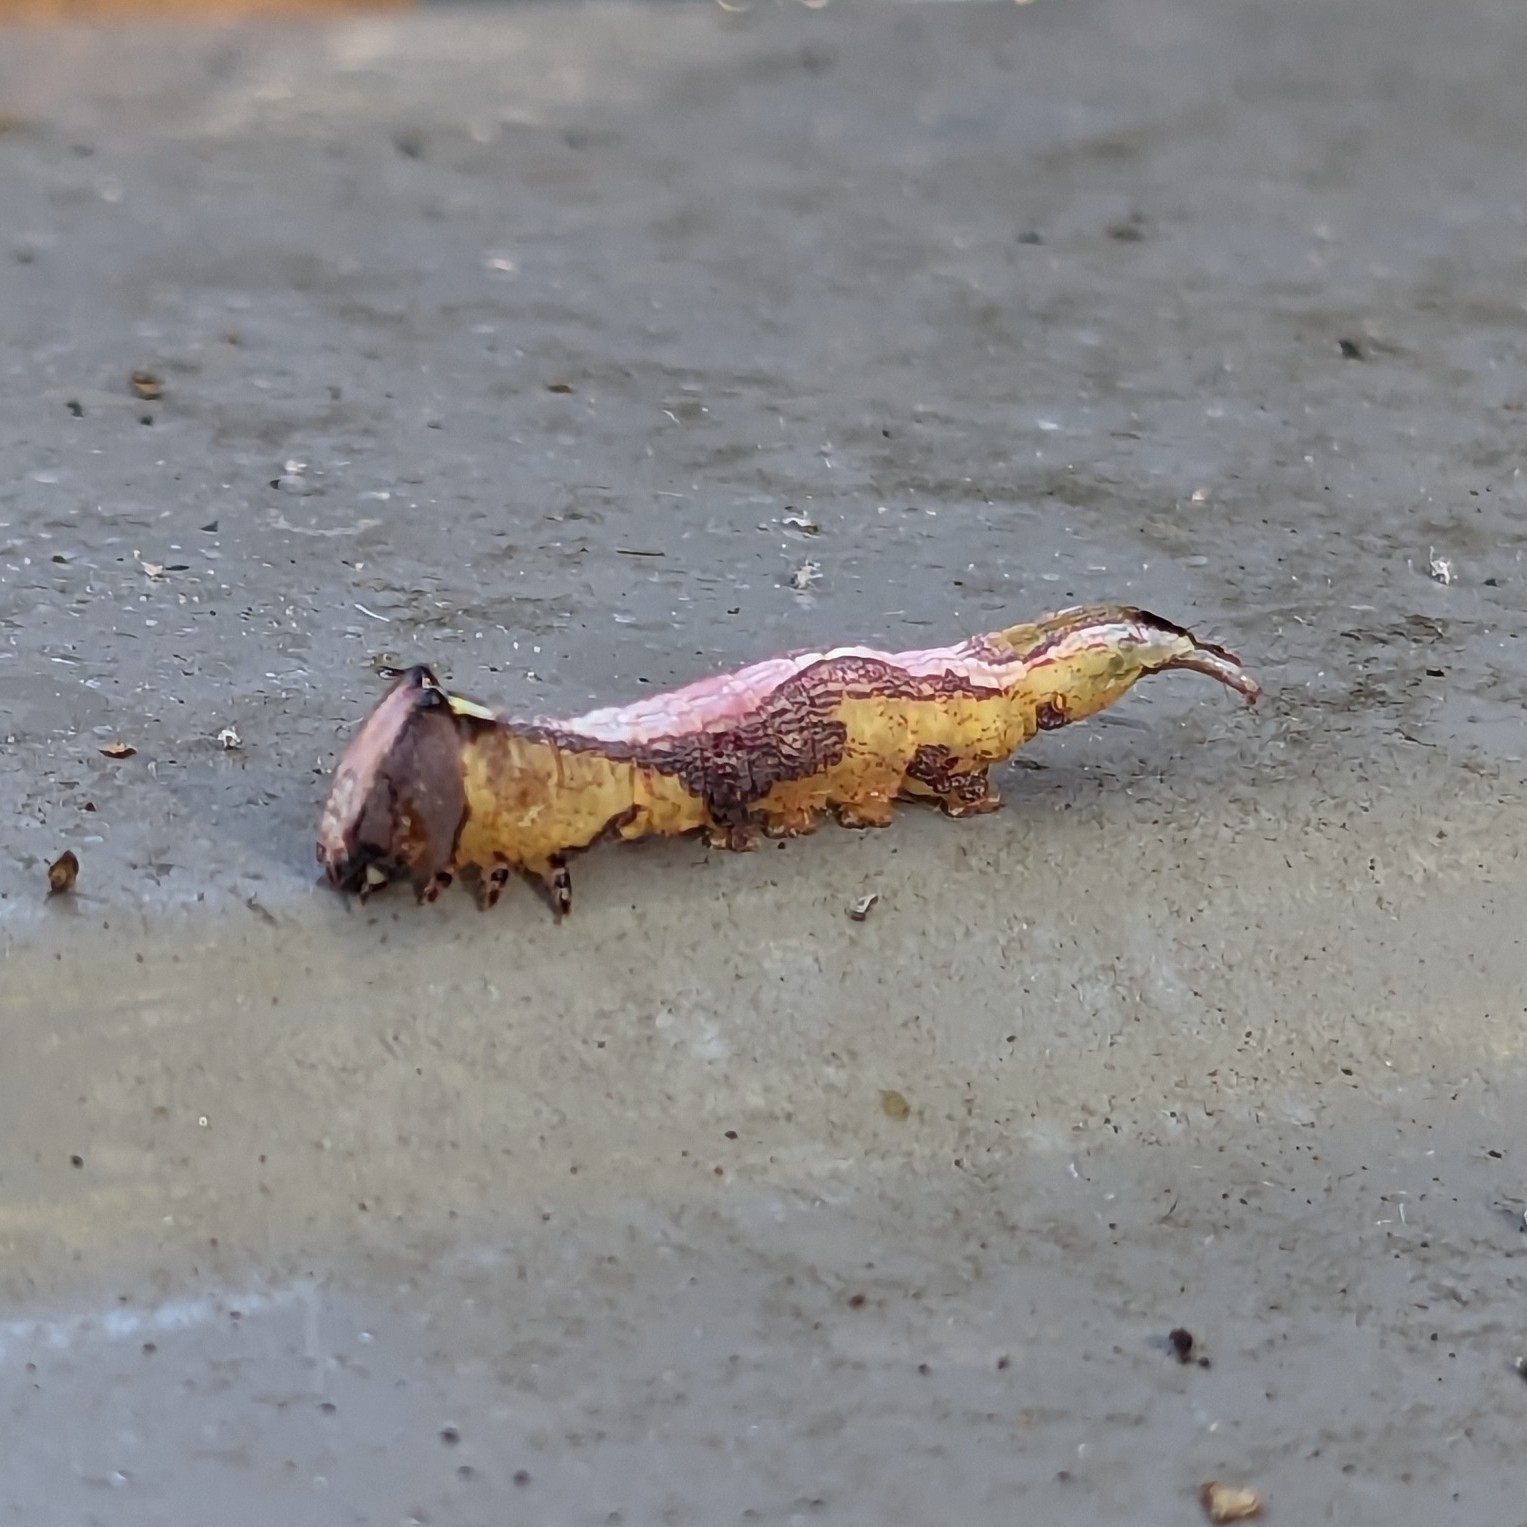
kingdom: Animalia
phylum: Arthropoda
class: Insecta
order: Lepidoptera
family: Notodontidae
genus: Disphragis
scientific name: Disphragis Cecrita biundata
